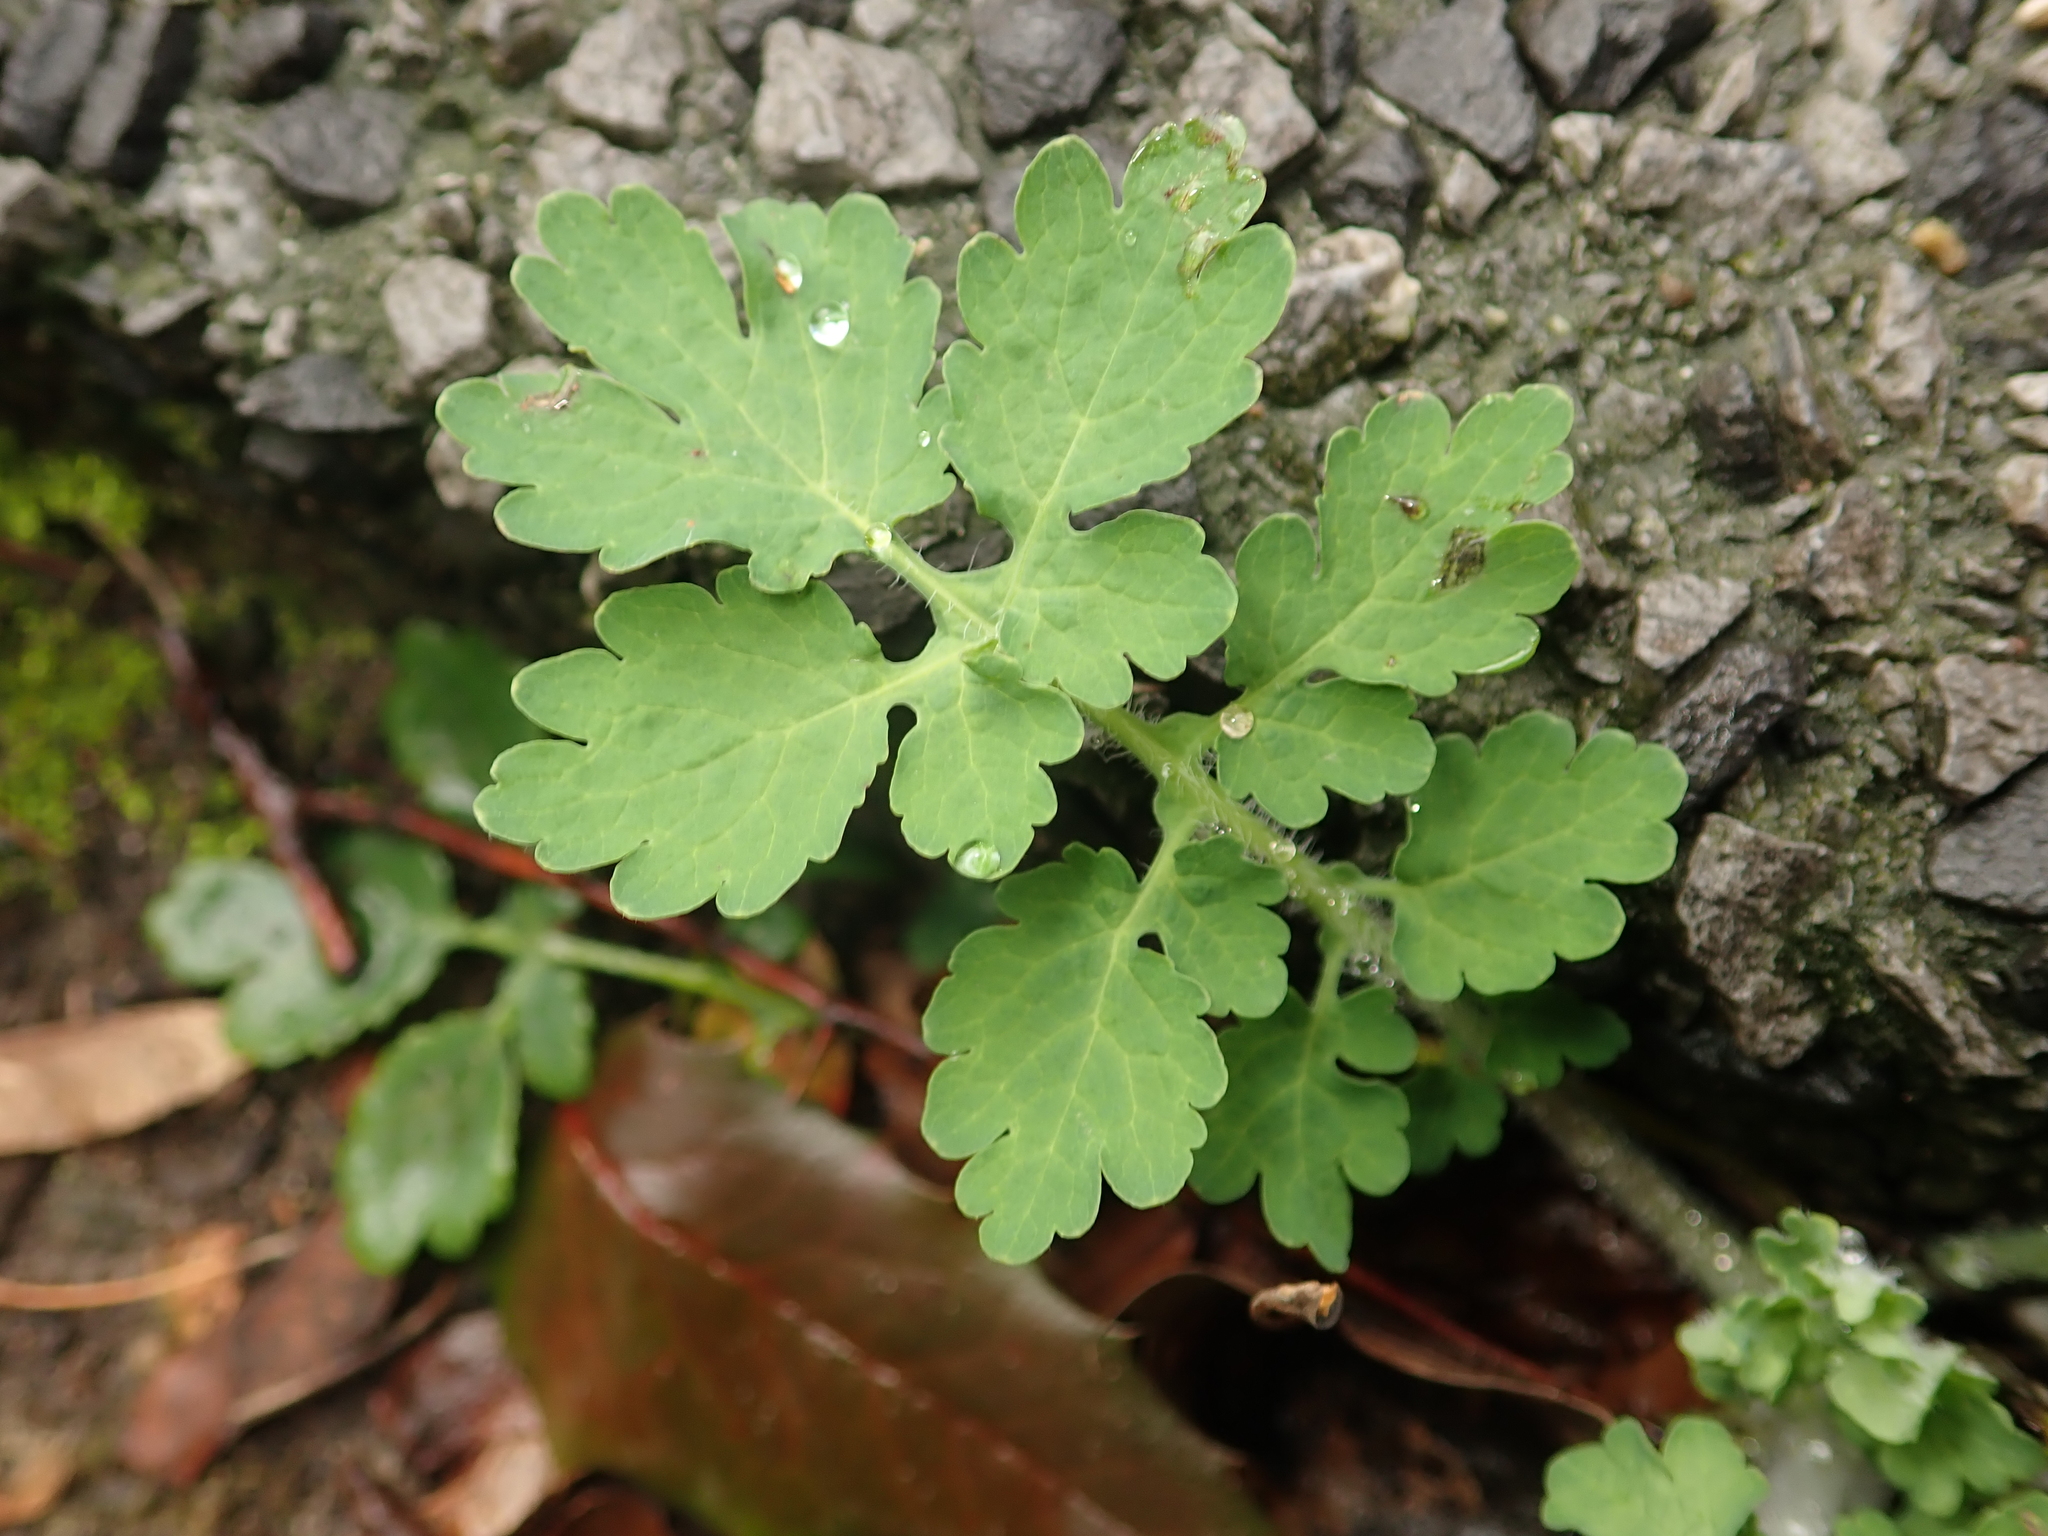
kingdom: Plantae
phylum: Tracheophyta
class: Magnoliopsida
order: Ranunculales
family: Papaveraceae
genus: Chelidonium
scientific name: Chelidonium majus
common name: Greater celandine
